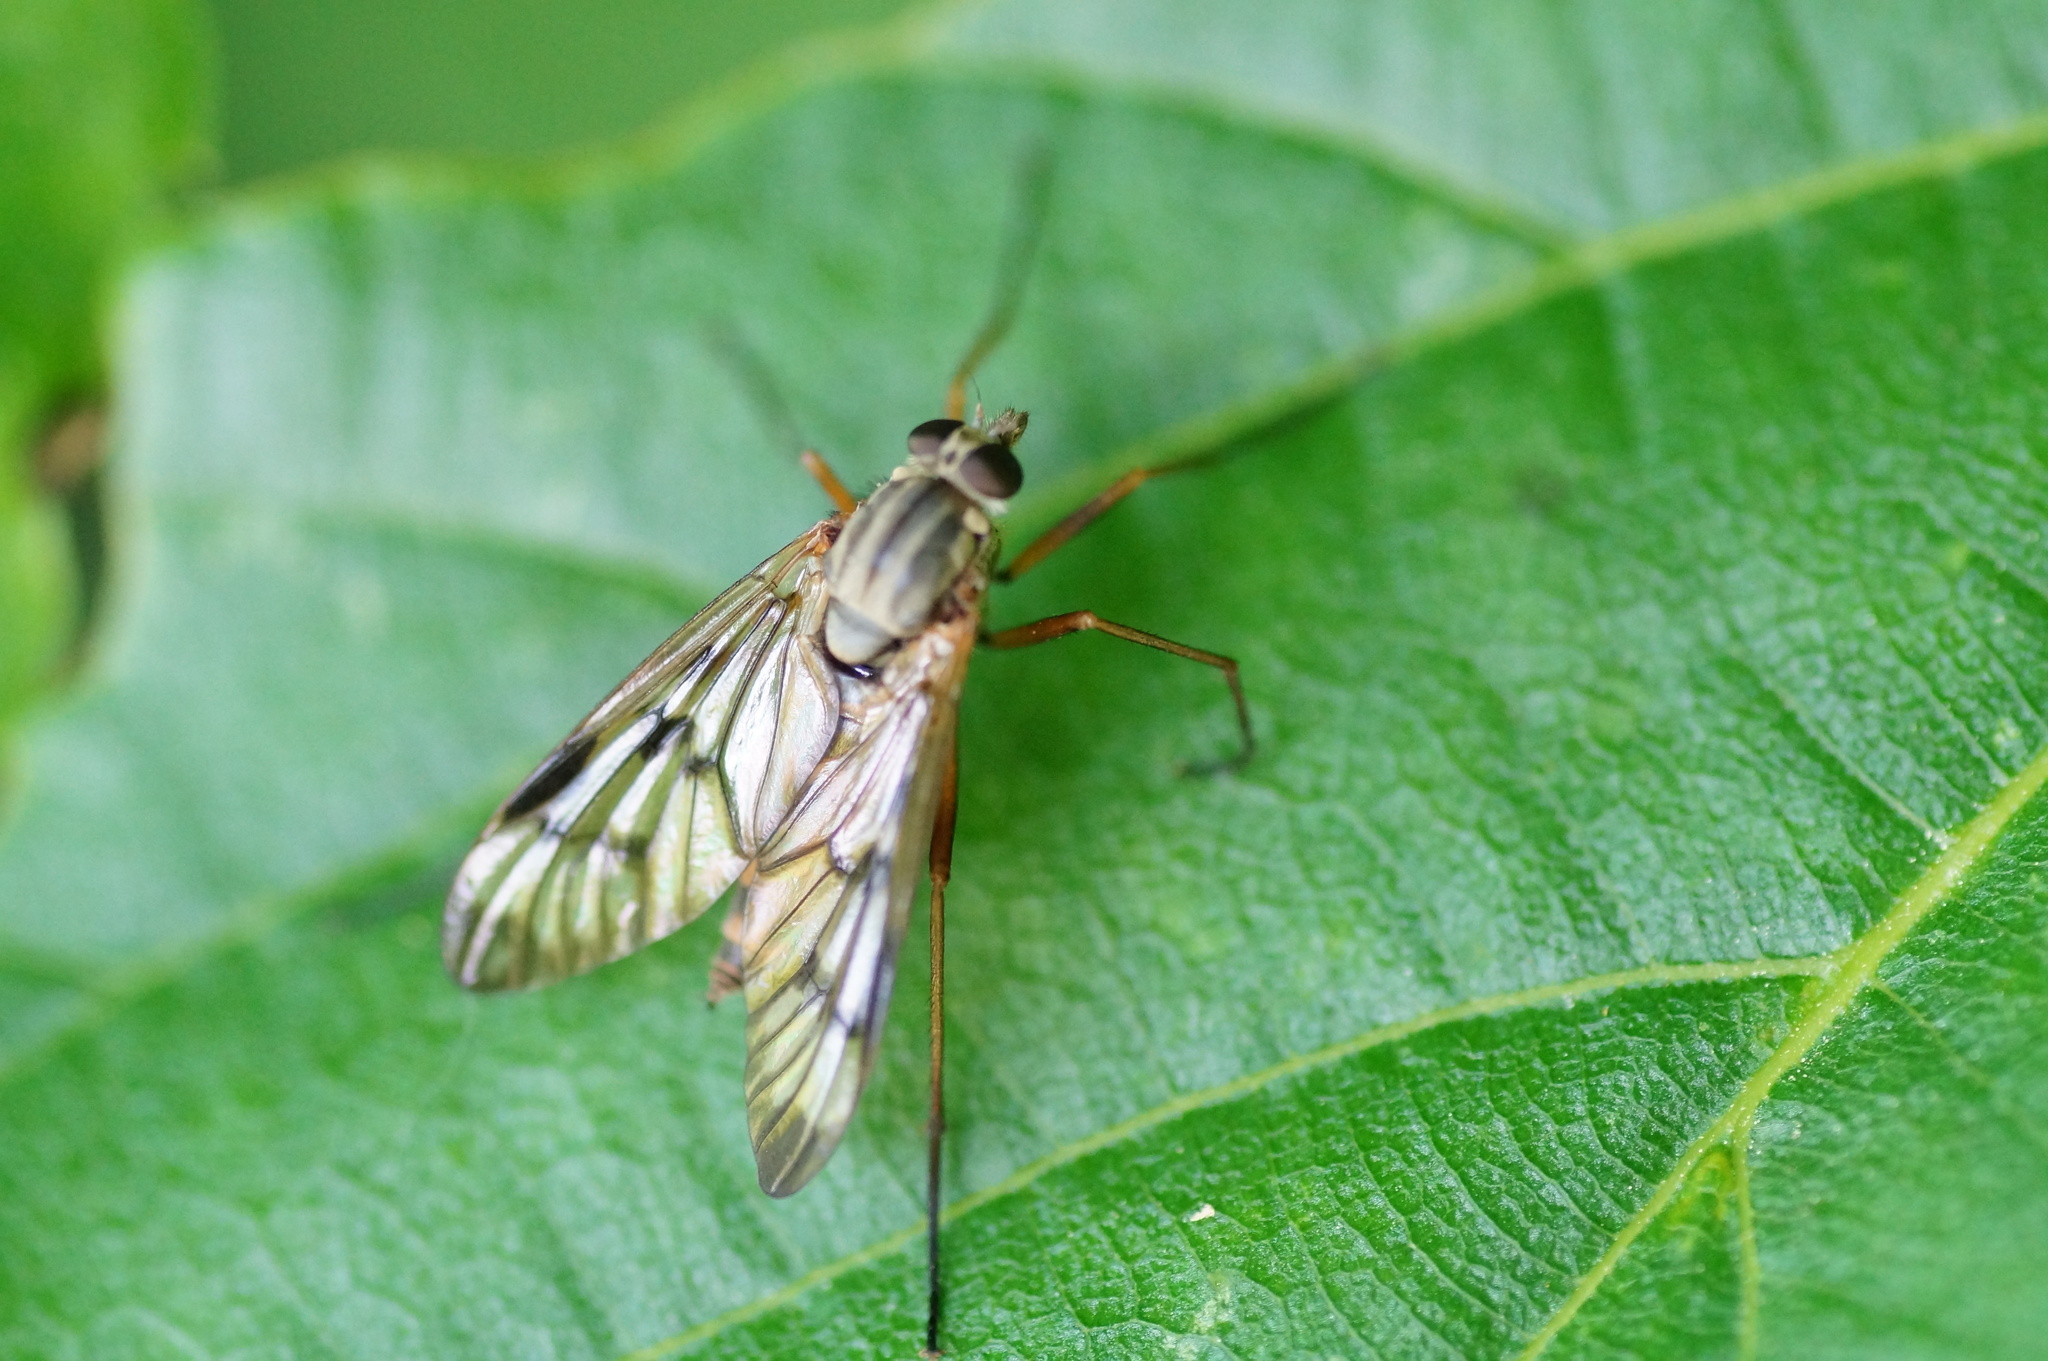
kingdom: Animalia
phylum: Arthropoda
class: Insecta
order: Diptera
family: Rhagionidae
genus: Rhagio
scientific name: Rhagio scolopacea
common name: Downlooker snipefly
